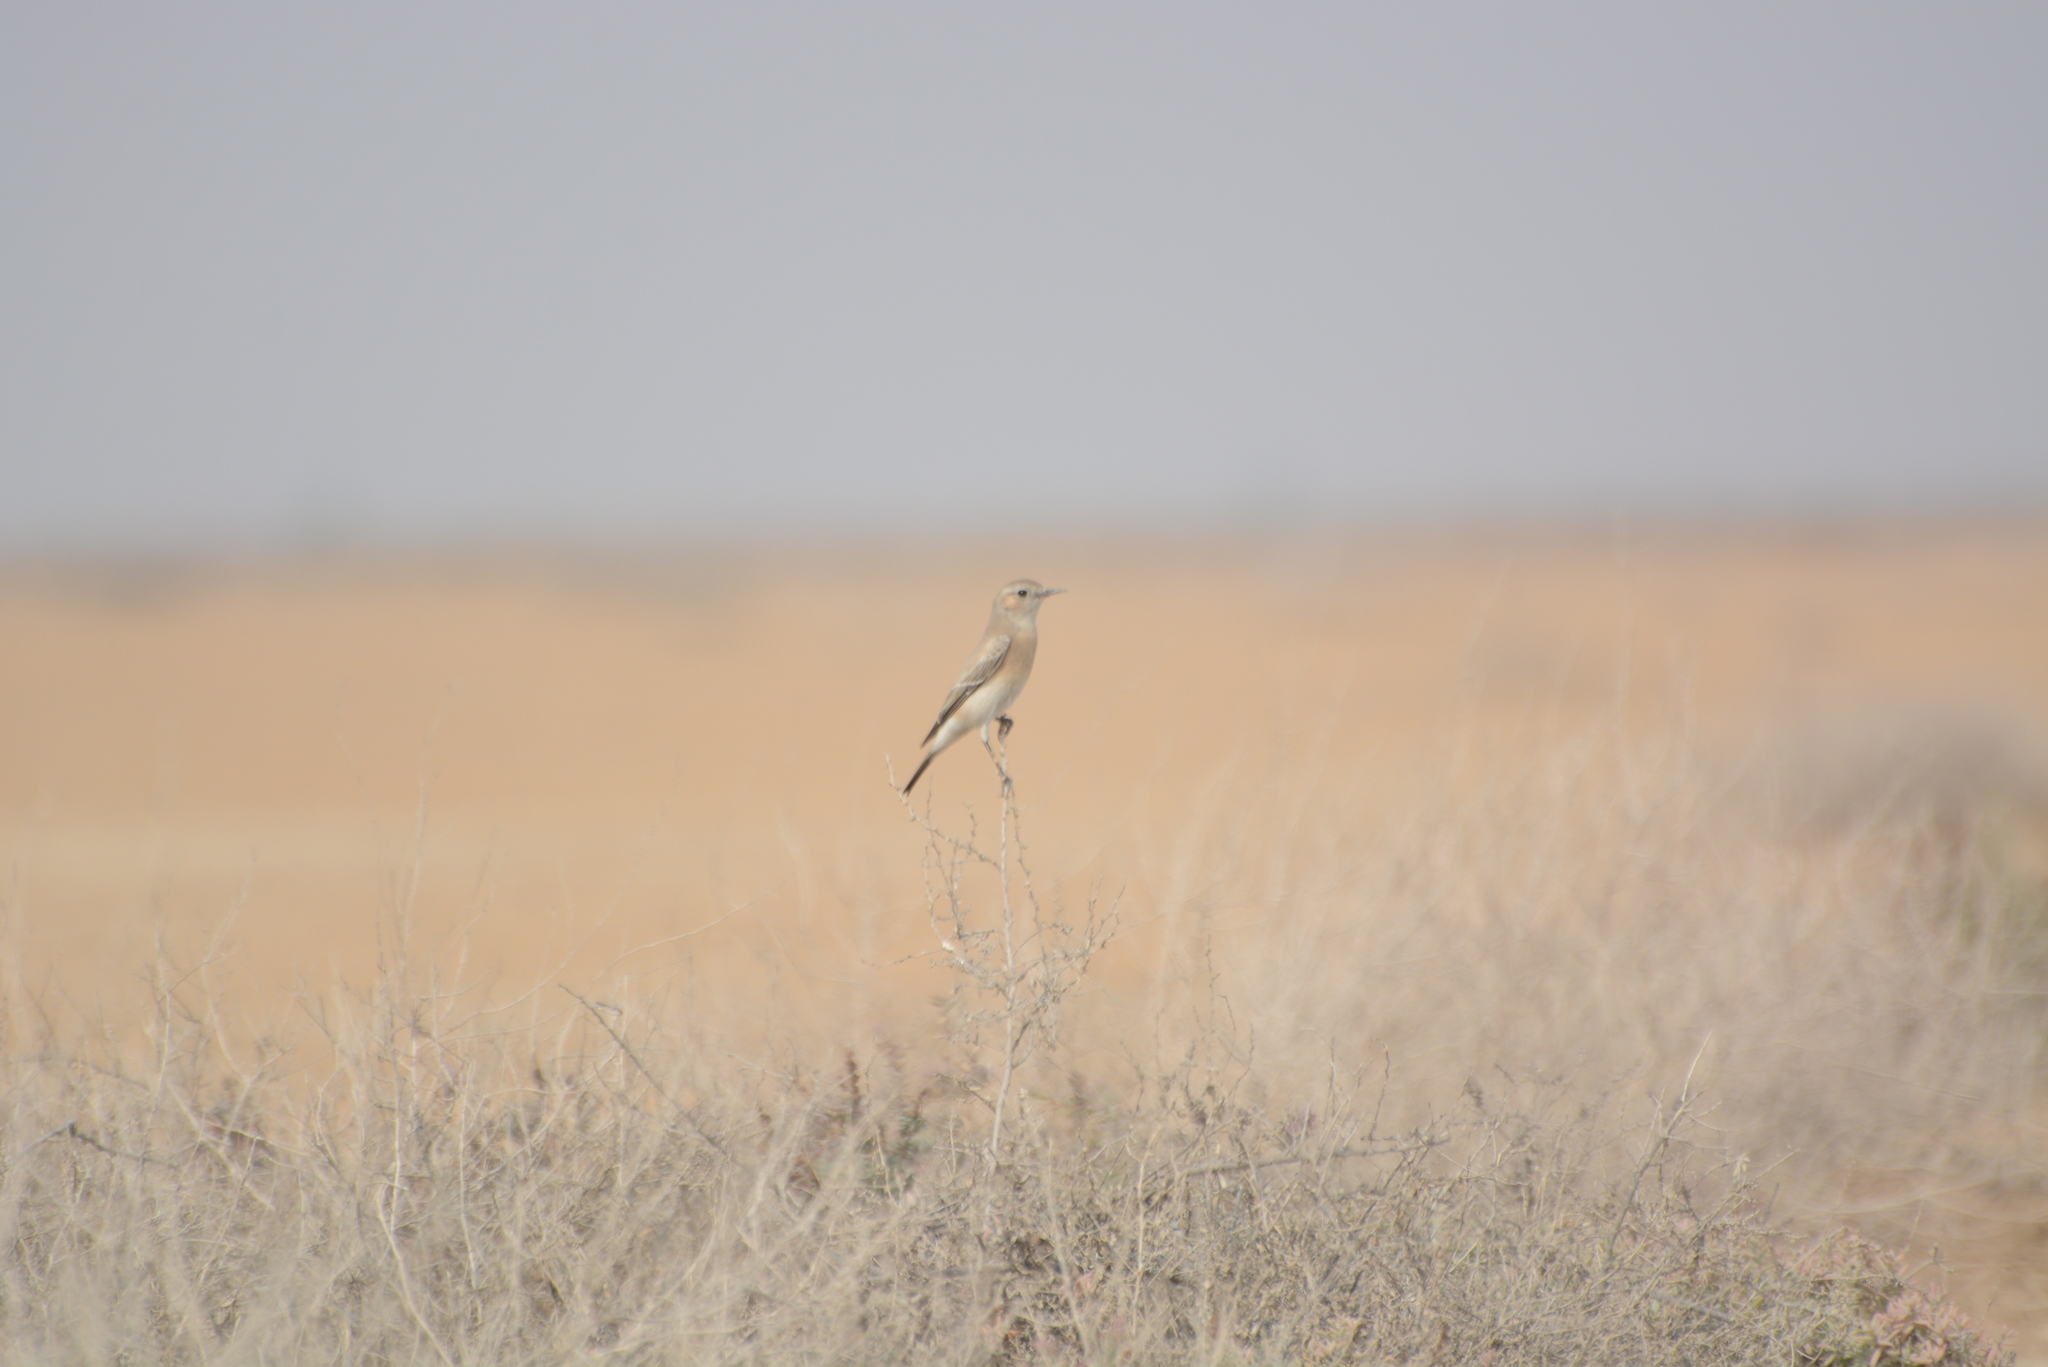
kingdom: Animalia
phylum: Chordata
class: Aves
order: Passeriformes
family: Muscicapidae
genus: Oenanthe
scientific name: Oenanthe isabellina
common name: Isabelline wheatear
